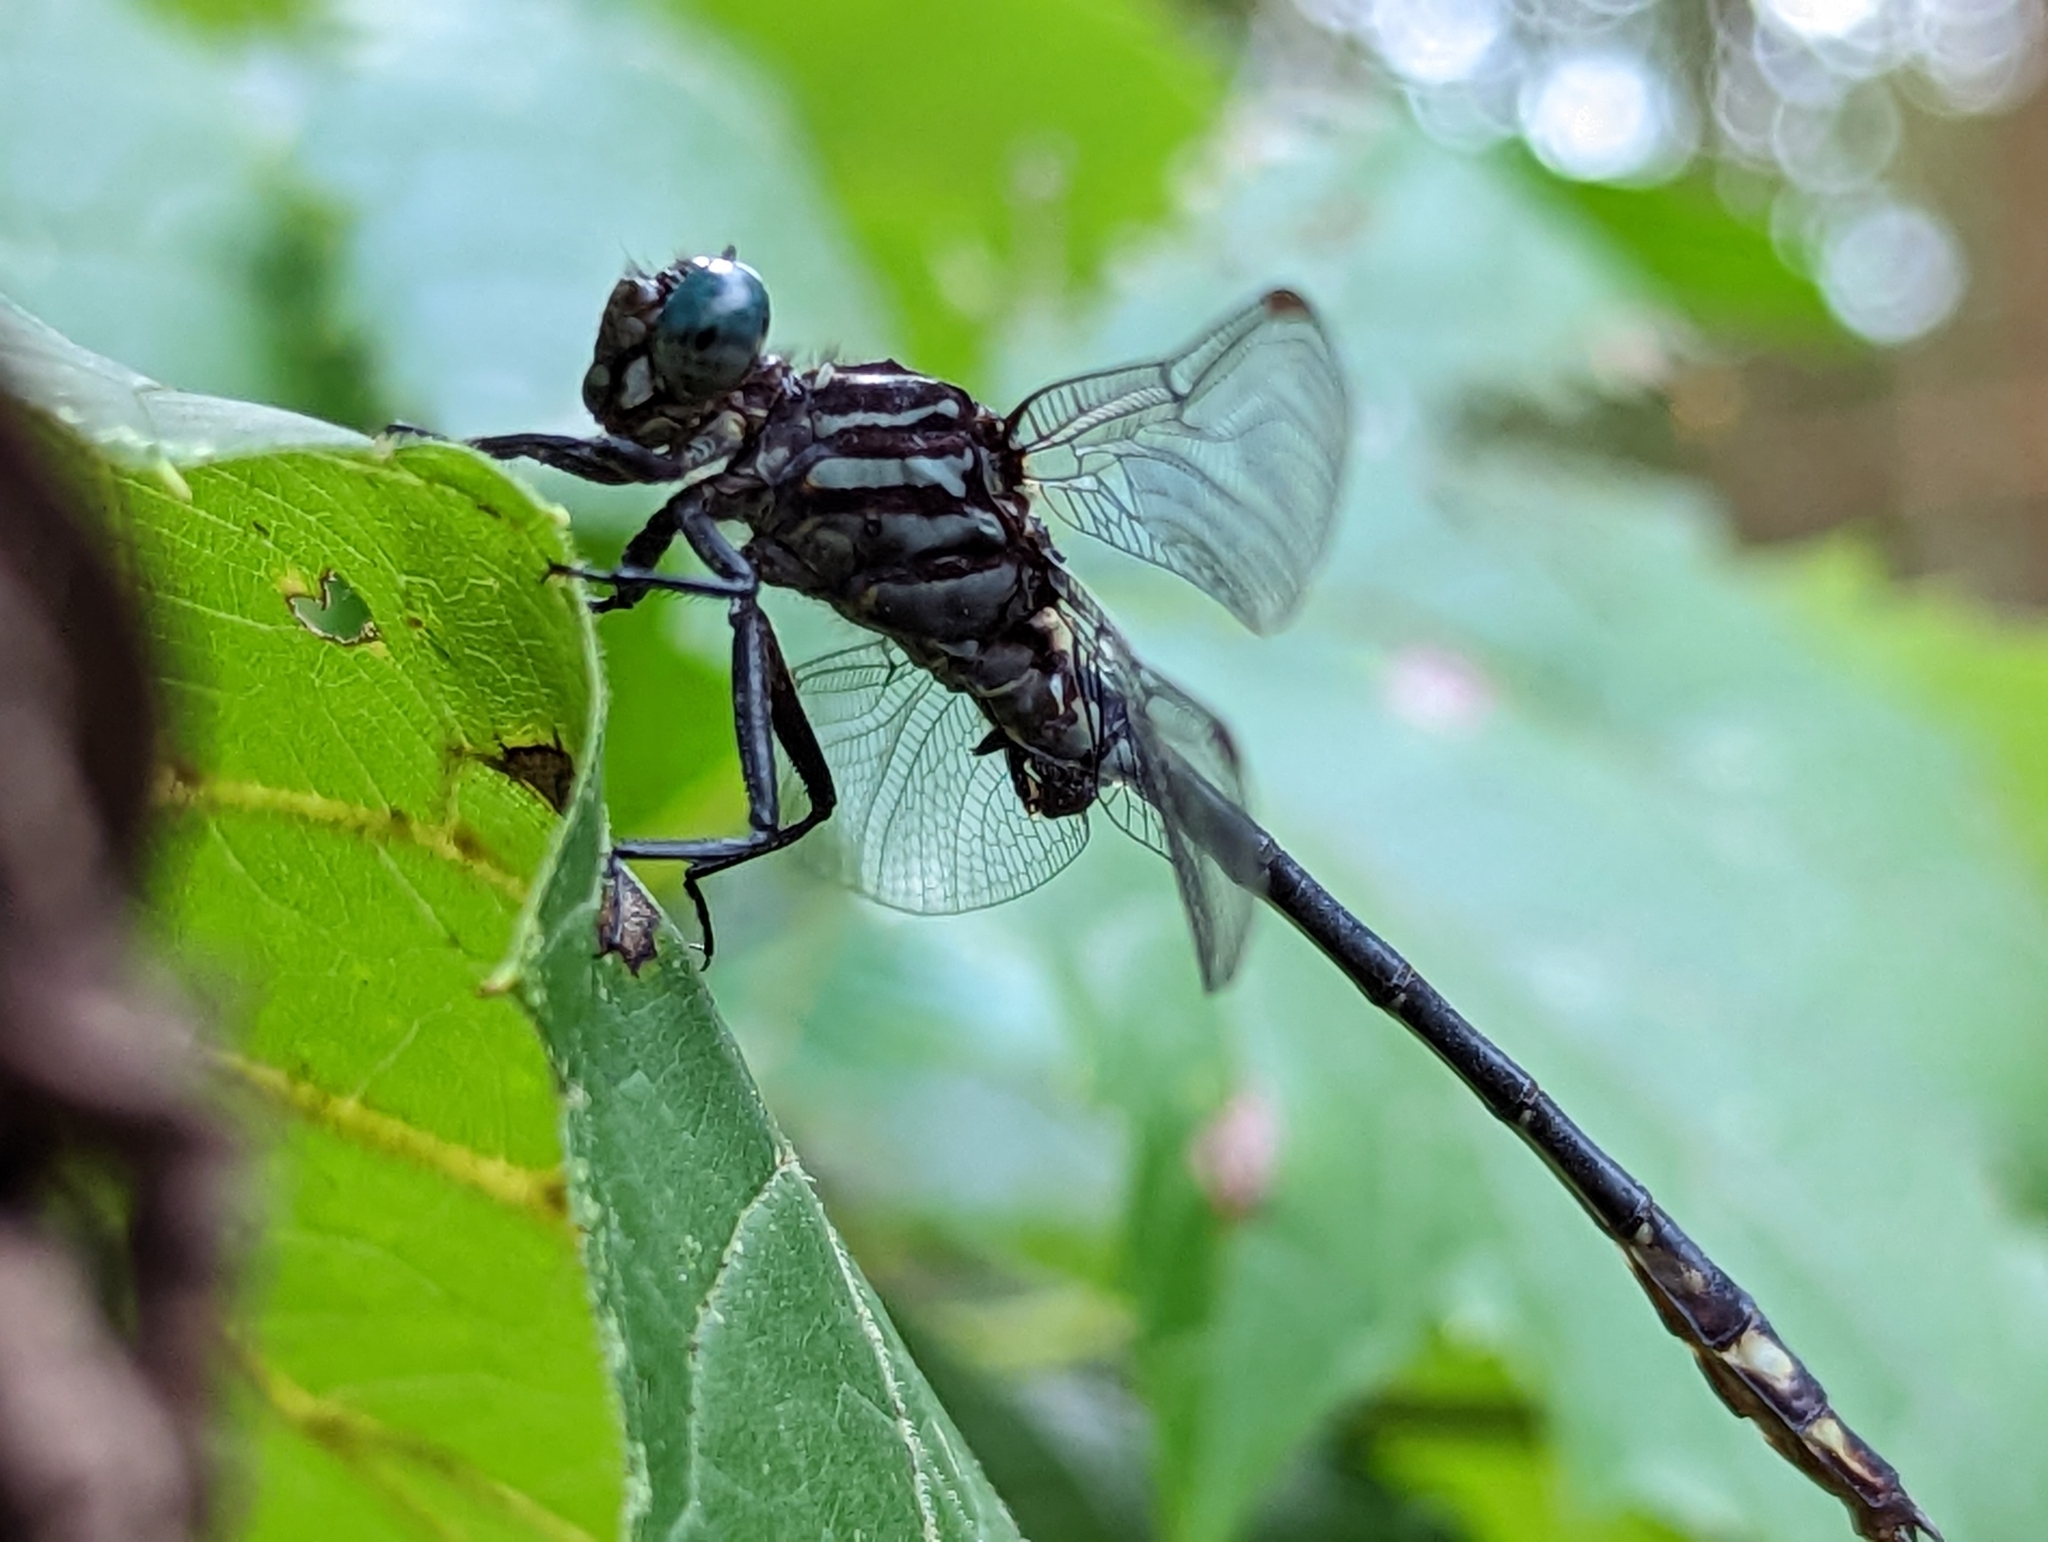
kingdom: Animalia
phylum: Arthropoda
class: Insecta
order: Odonata
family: Gomphidae
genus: Stylurus
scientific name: Stylurus notatus
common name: Elusive clubtail
